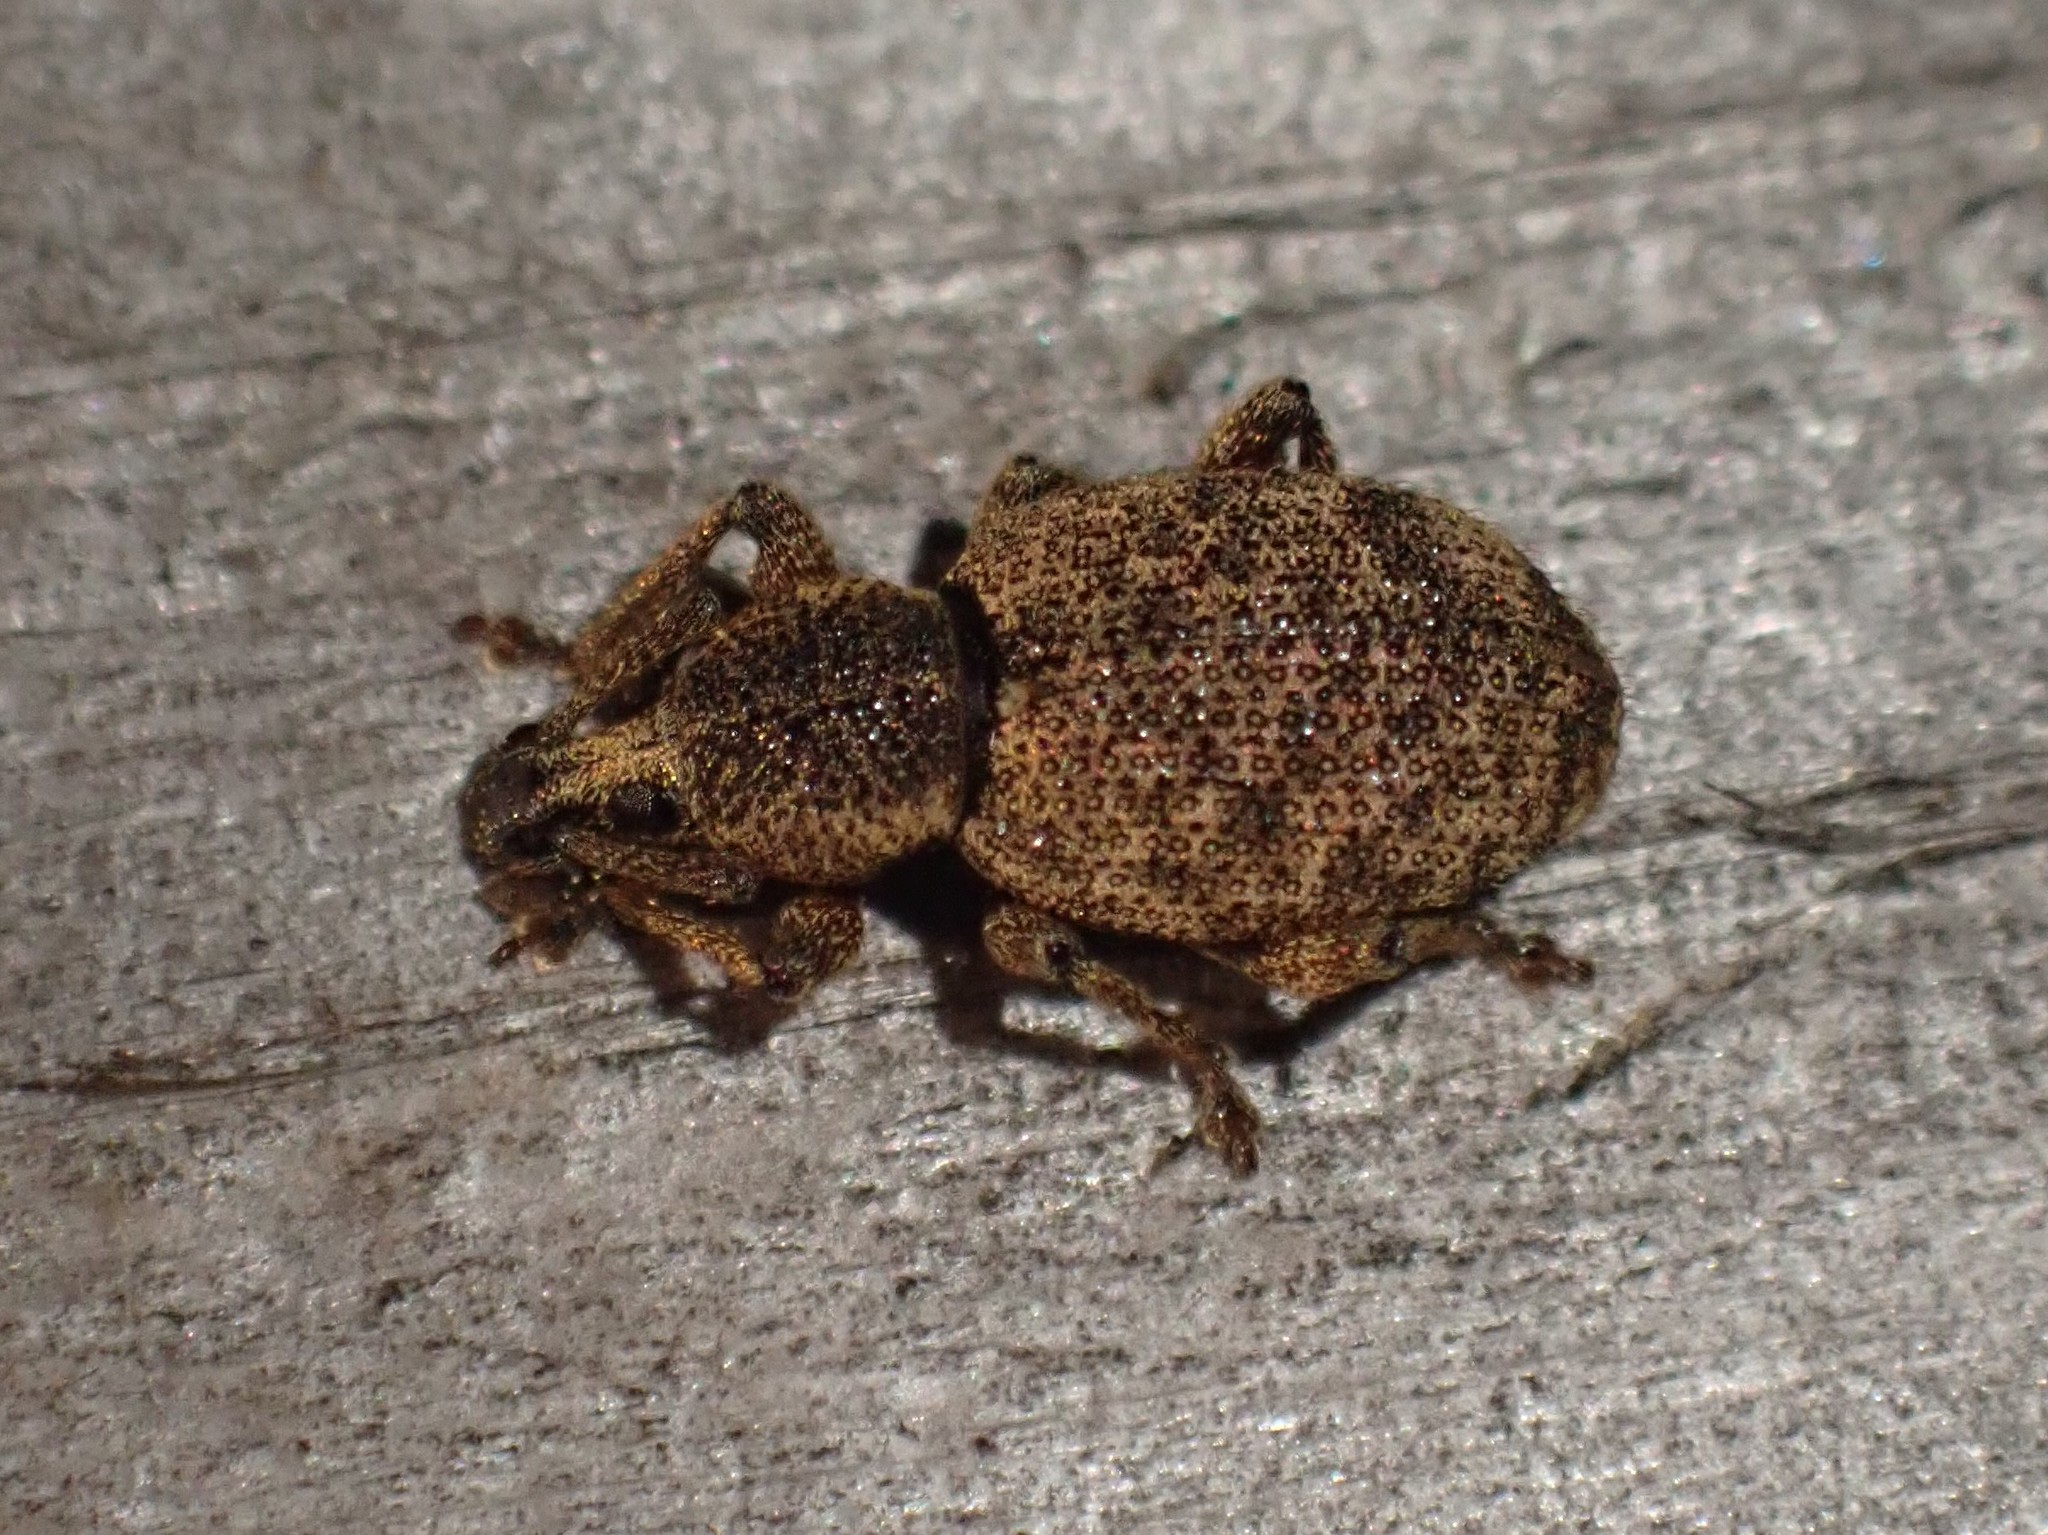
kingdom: Animalia
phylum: Arthropoda
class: Insecta
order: Coleoptera
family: Curculionidae
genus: Otiorhynchus
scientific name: Otiorhynchus singularis
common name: Clay-coloured weevil
